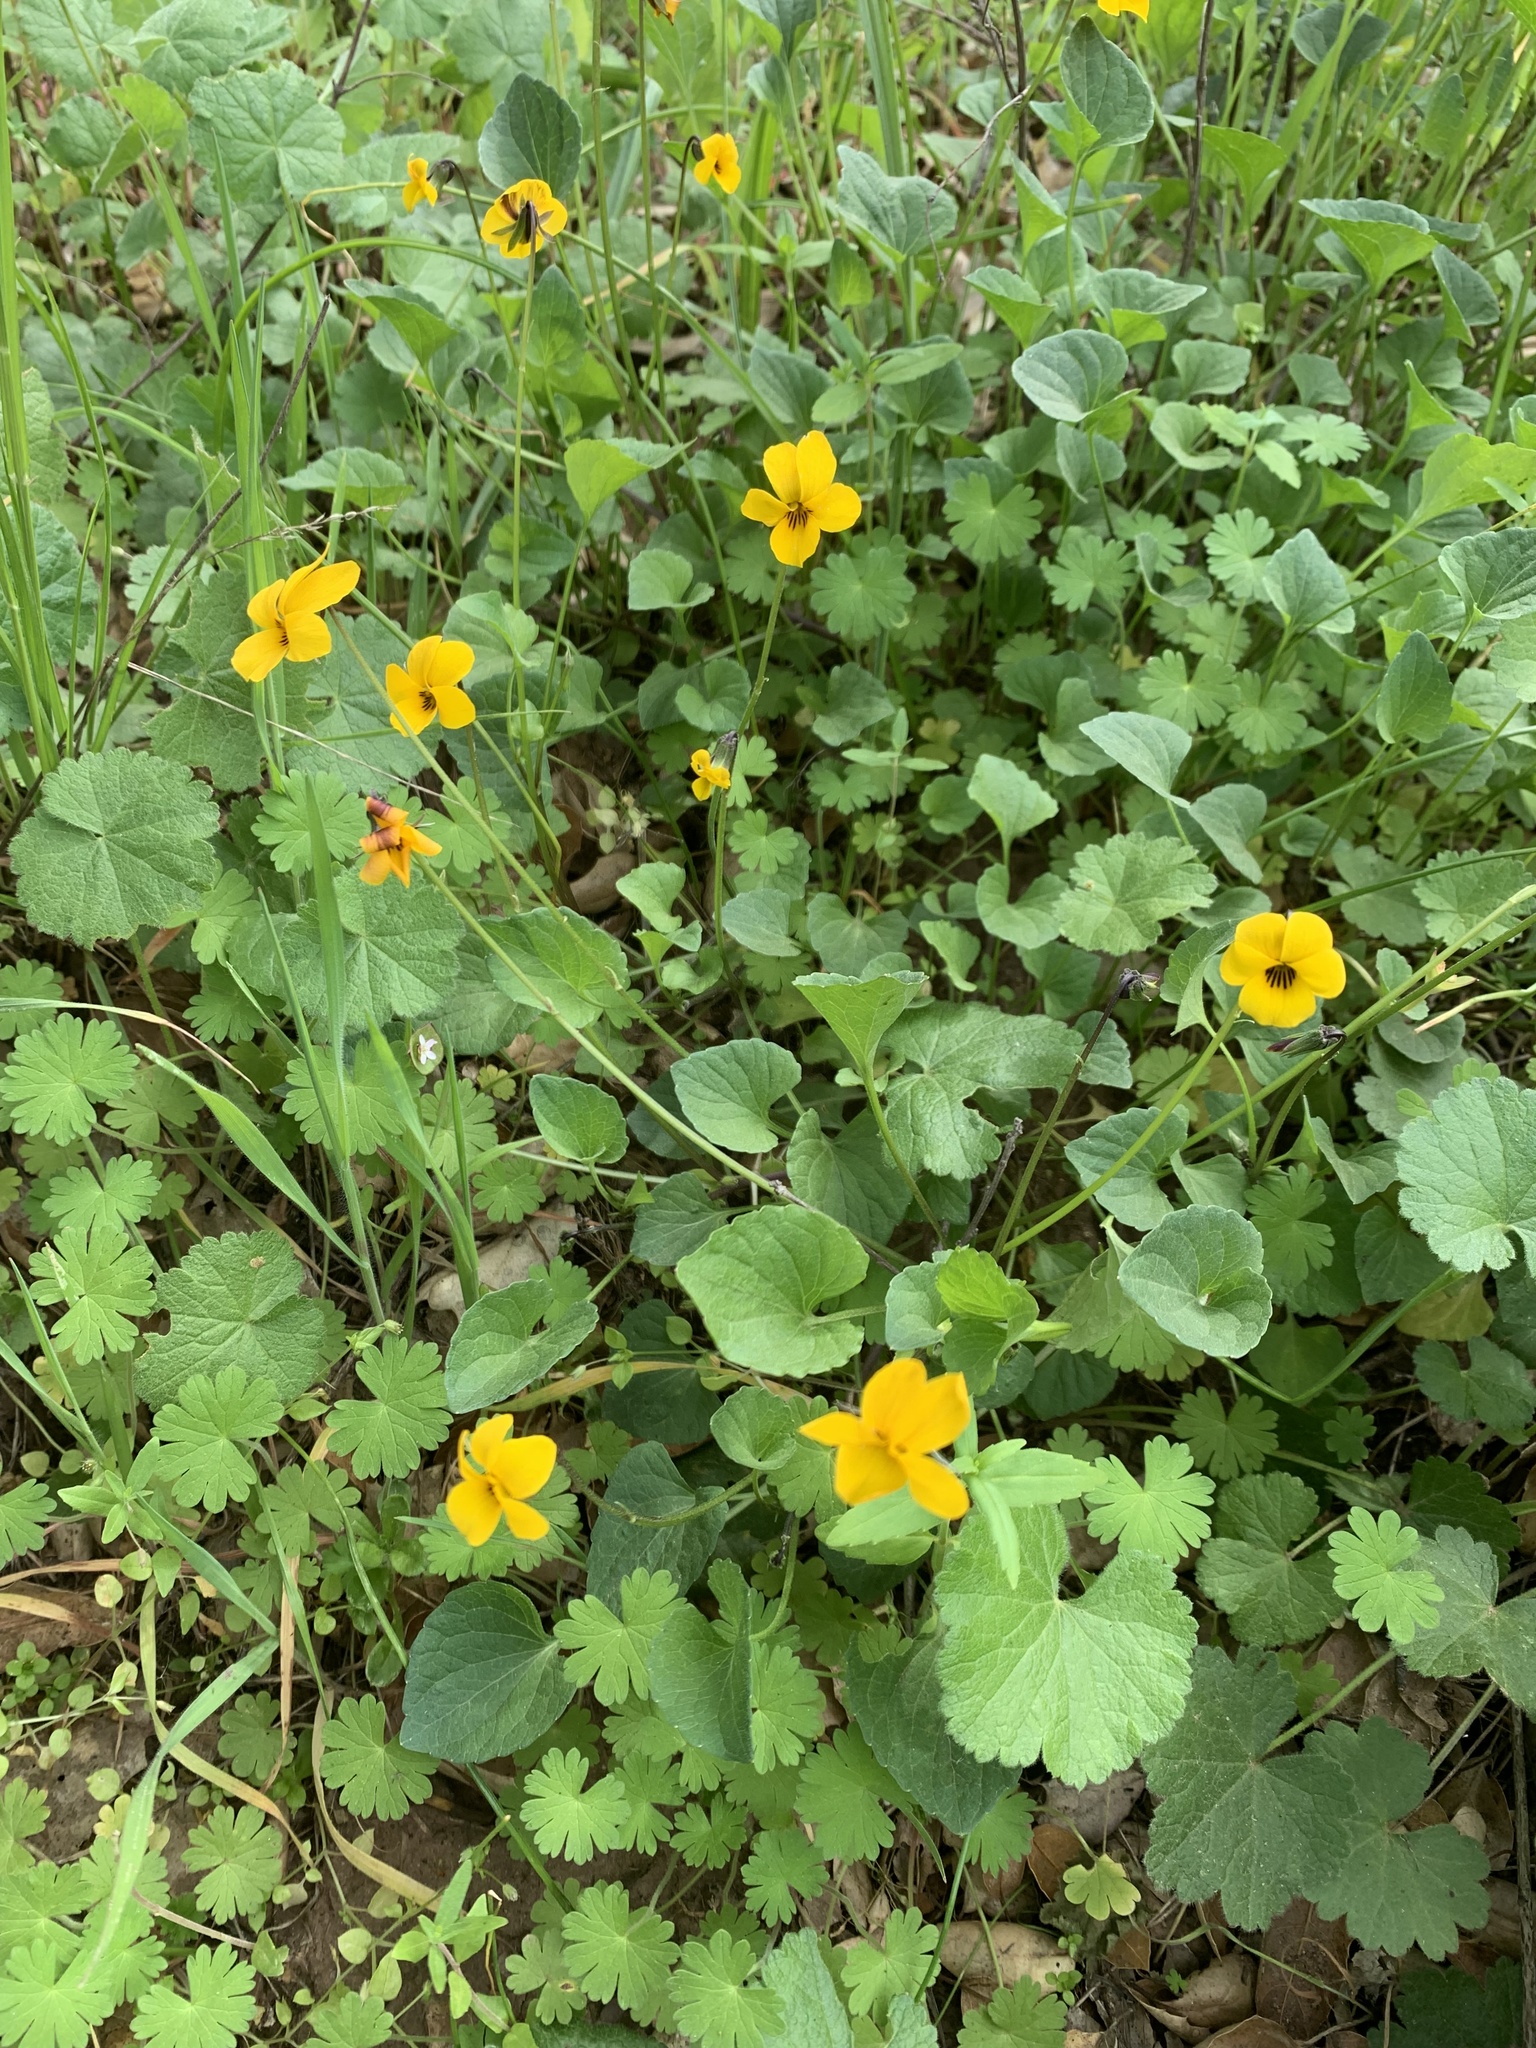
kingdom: Plantae
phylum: Tracheophyta
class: Magnoliopsida
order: Malpighiales
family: Violaceae
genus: Viola
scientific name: Viola pedunculata
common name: California golden violet
